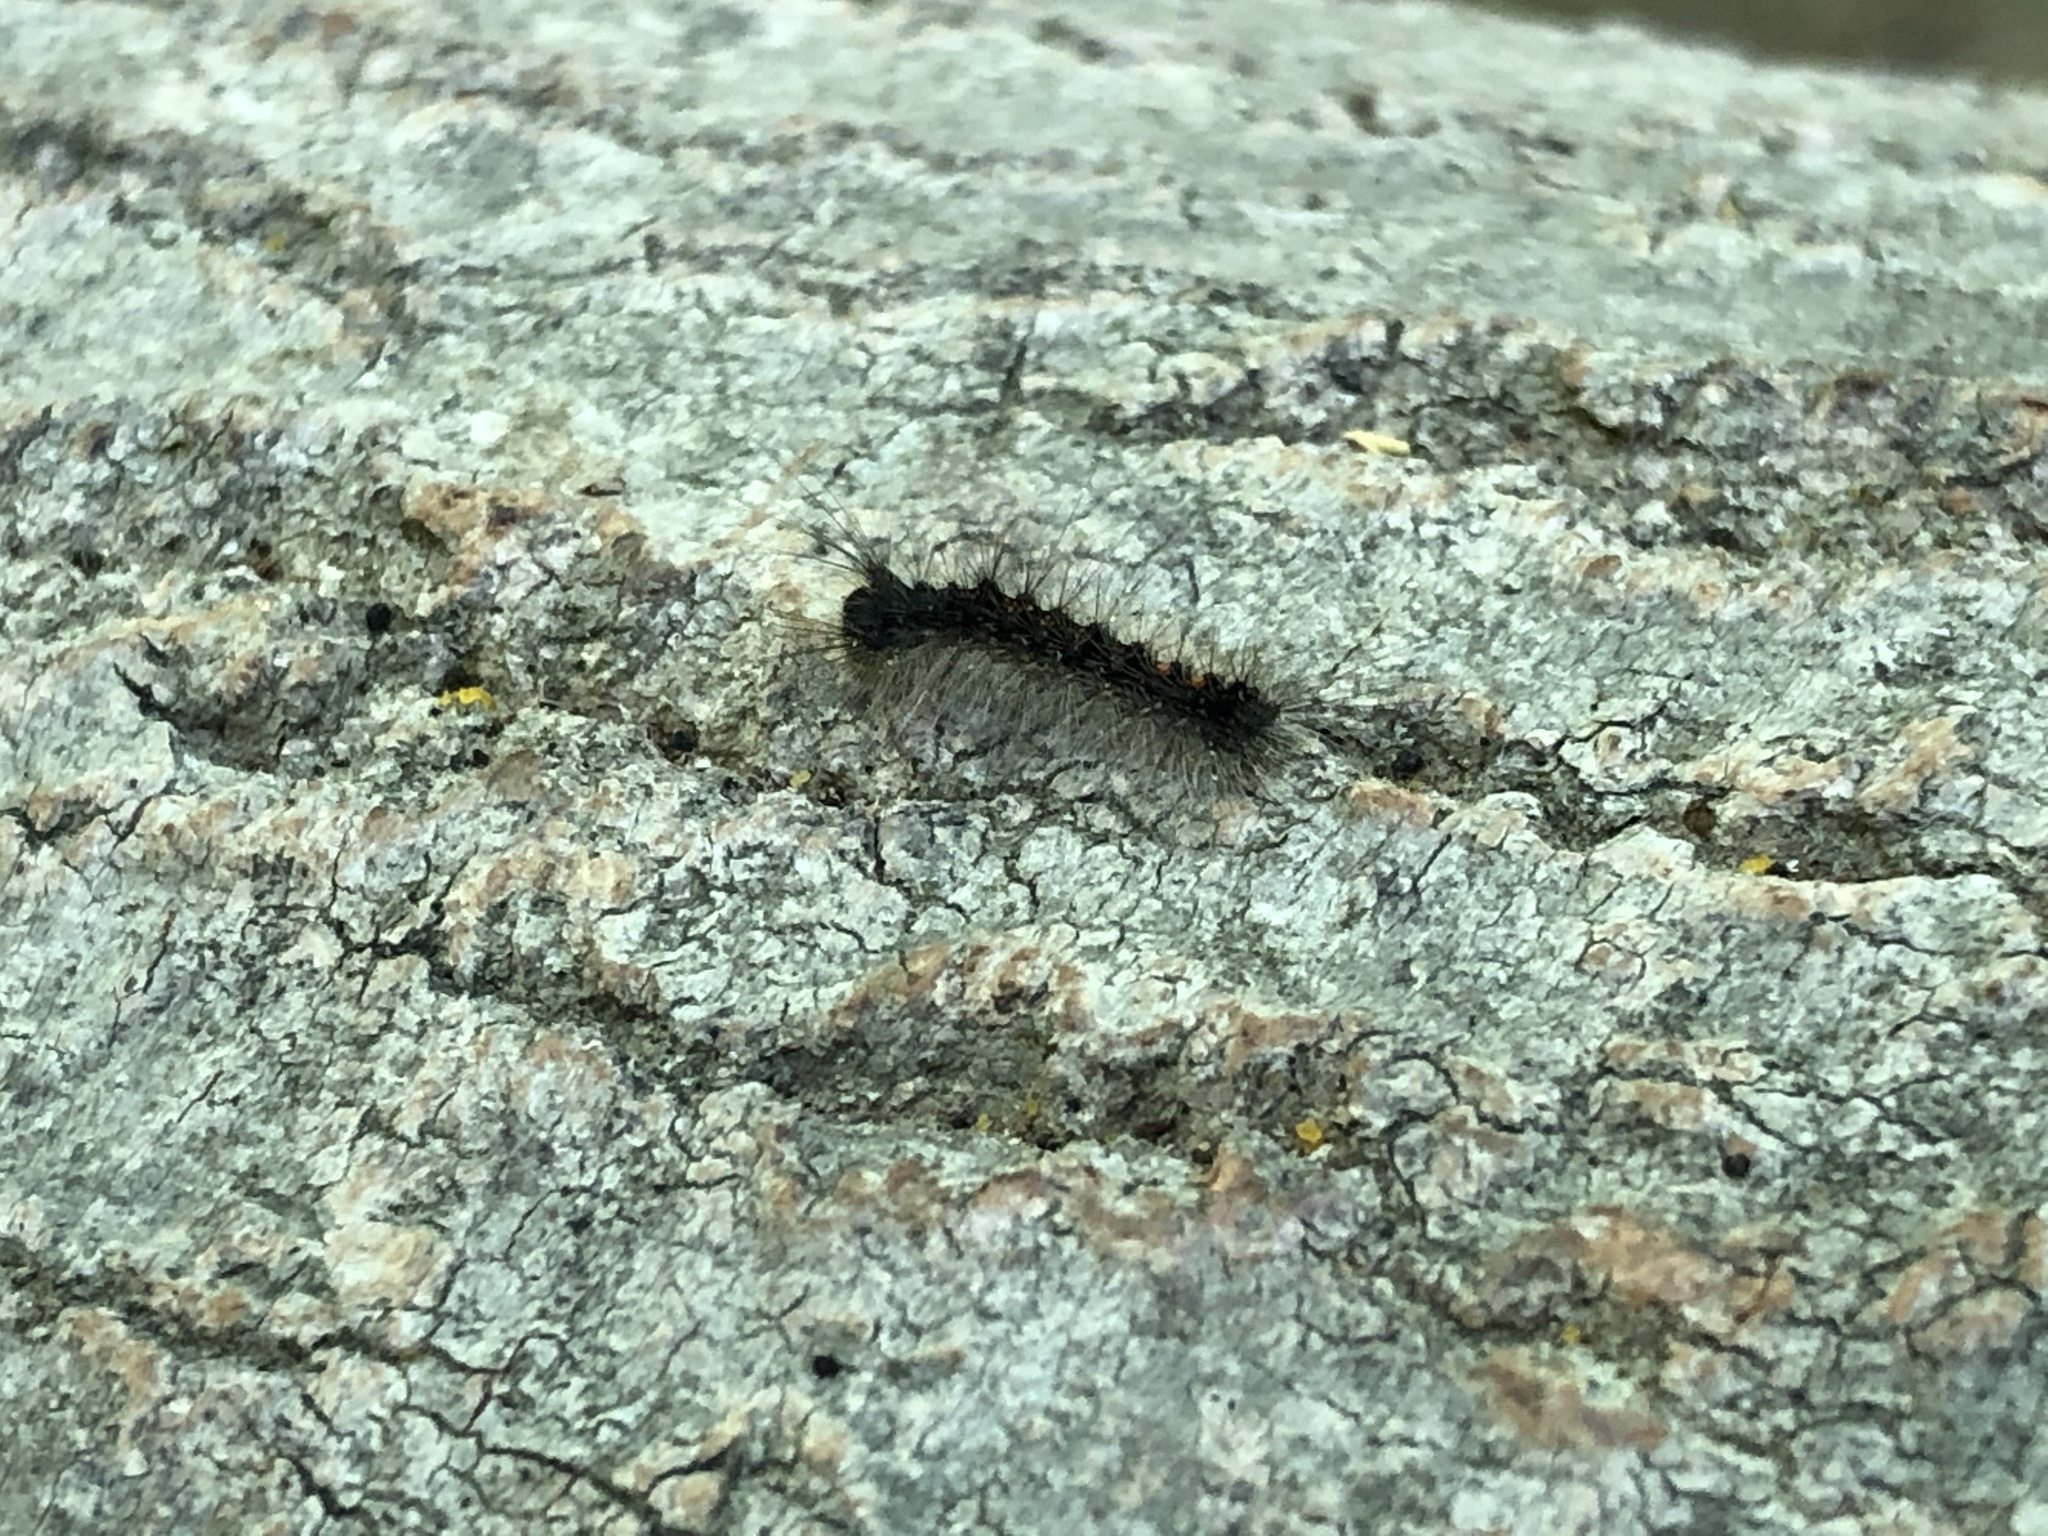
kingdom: Animalia
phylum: Arthropoda
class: Insecta
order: Lepidoptera
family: Erebidae
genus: Lymantria
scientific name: Lymantria dispar
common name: Gypsy moth
